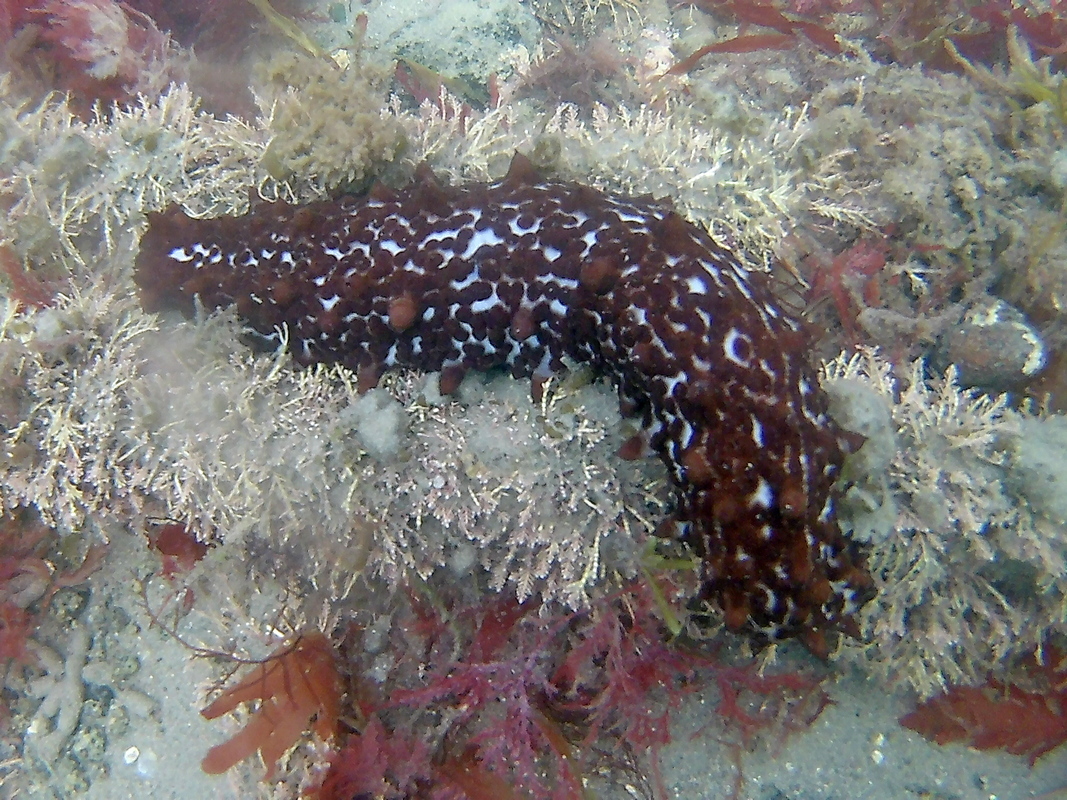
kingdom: Animalia
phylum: Echinodermata
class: Holothuroidea
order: Synallactida
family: Stichopodidae
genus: Australostichopus
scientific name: Australostichopus mollis
